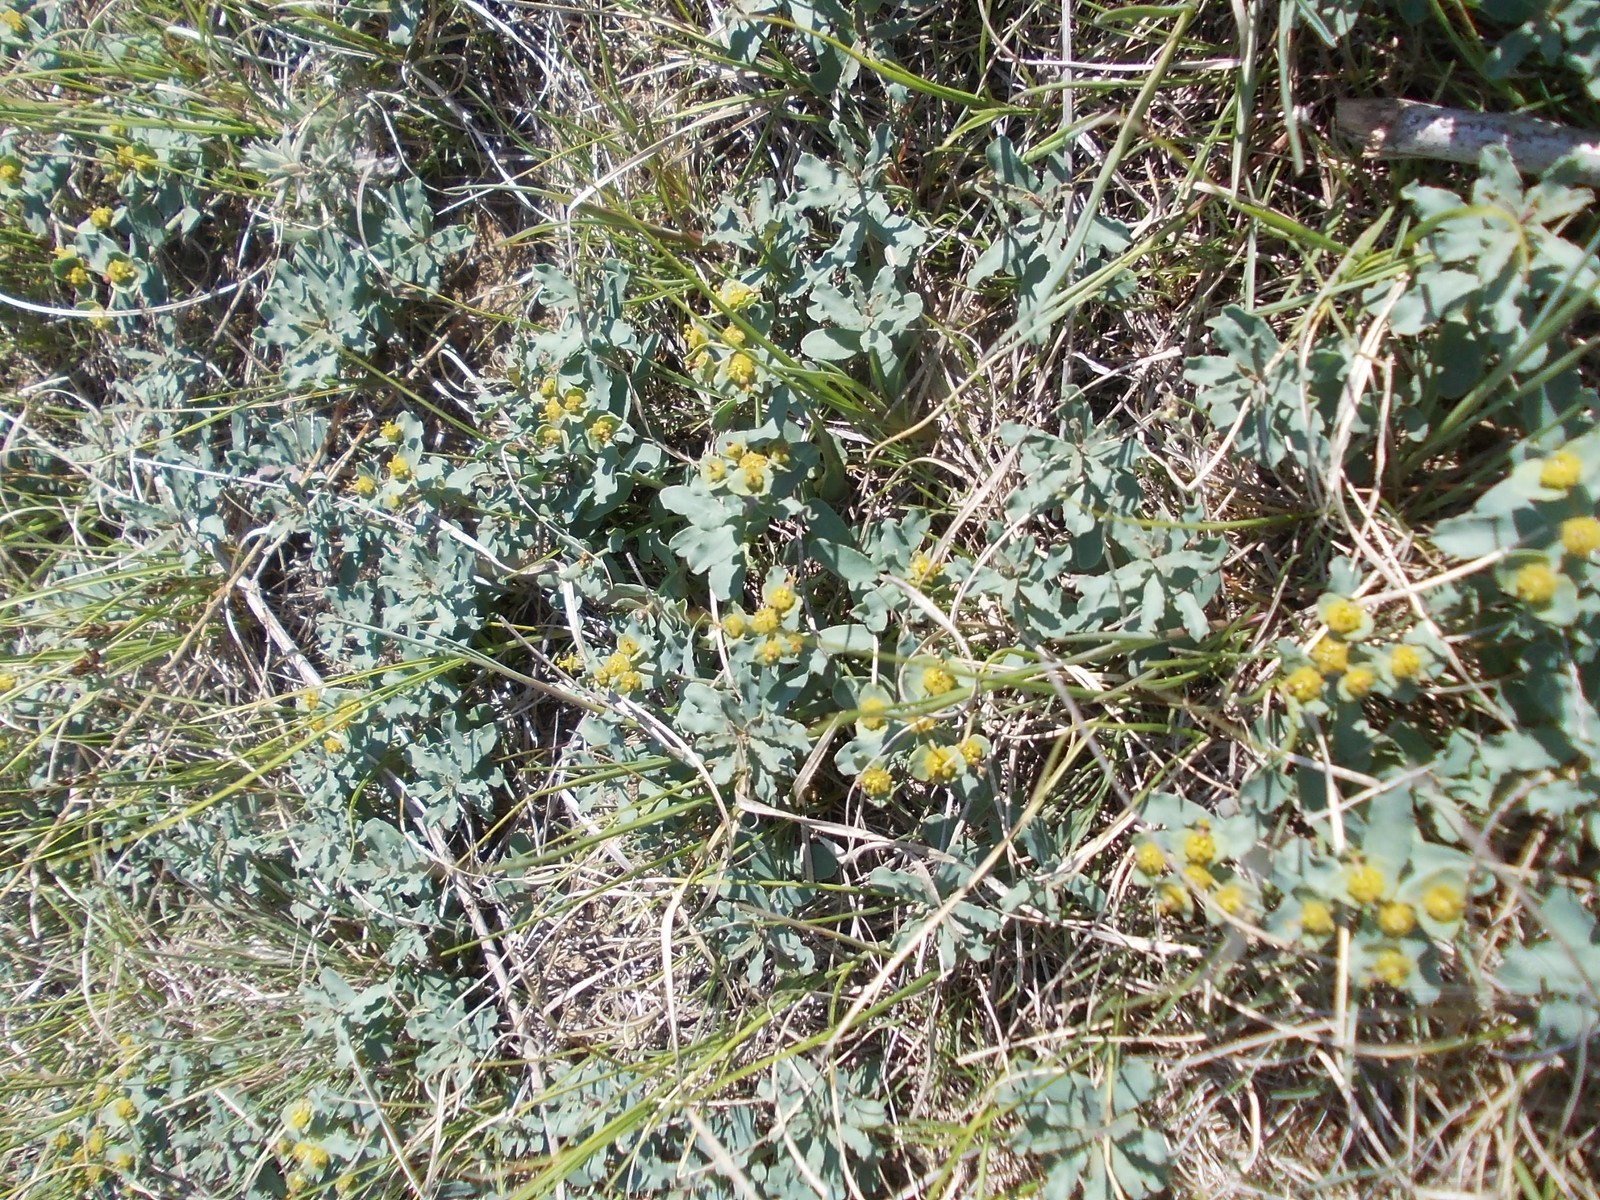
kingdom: Plantae
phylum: Tracheophyta
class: Magnoliopsida
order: Malpighiales
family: Euphorbiaceae
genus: Euphorbia
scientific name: Euphorbia undulata
